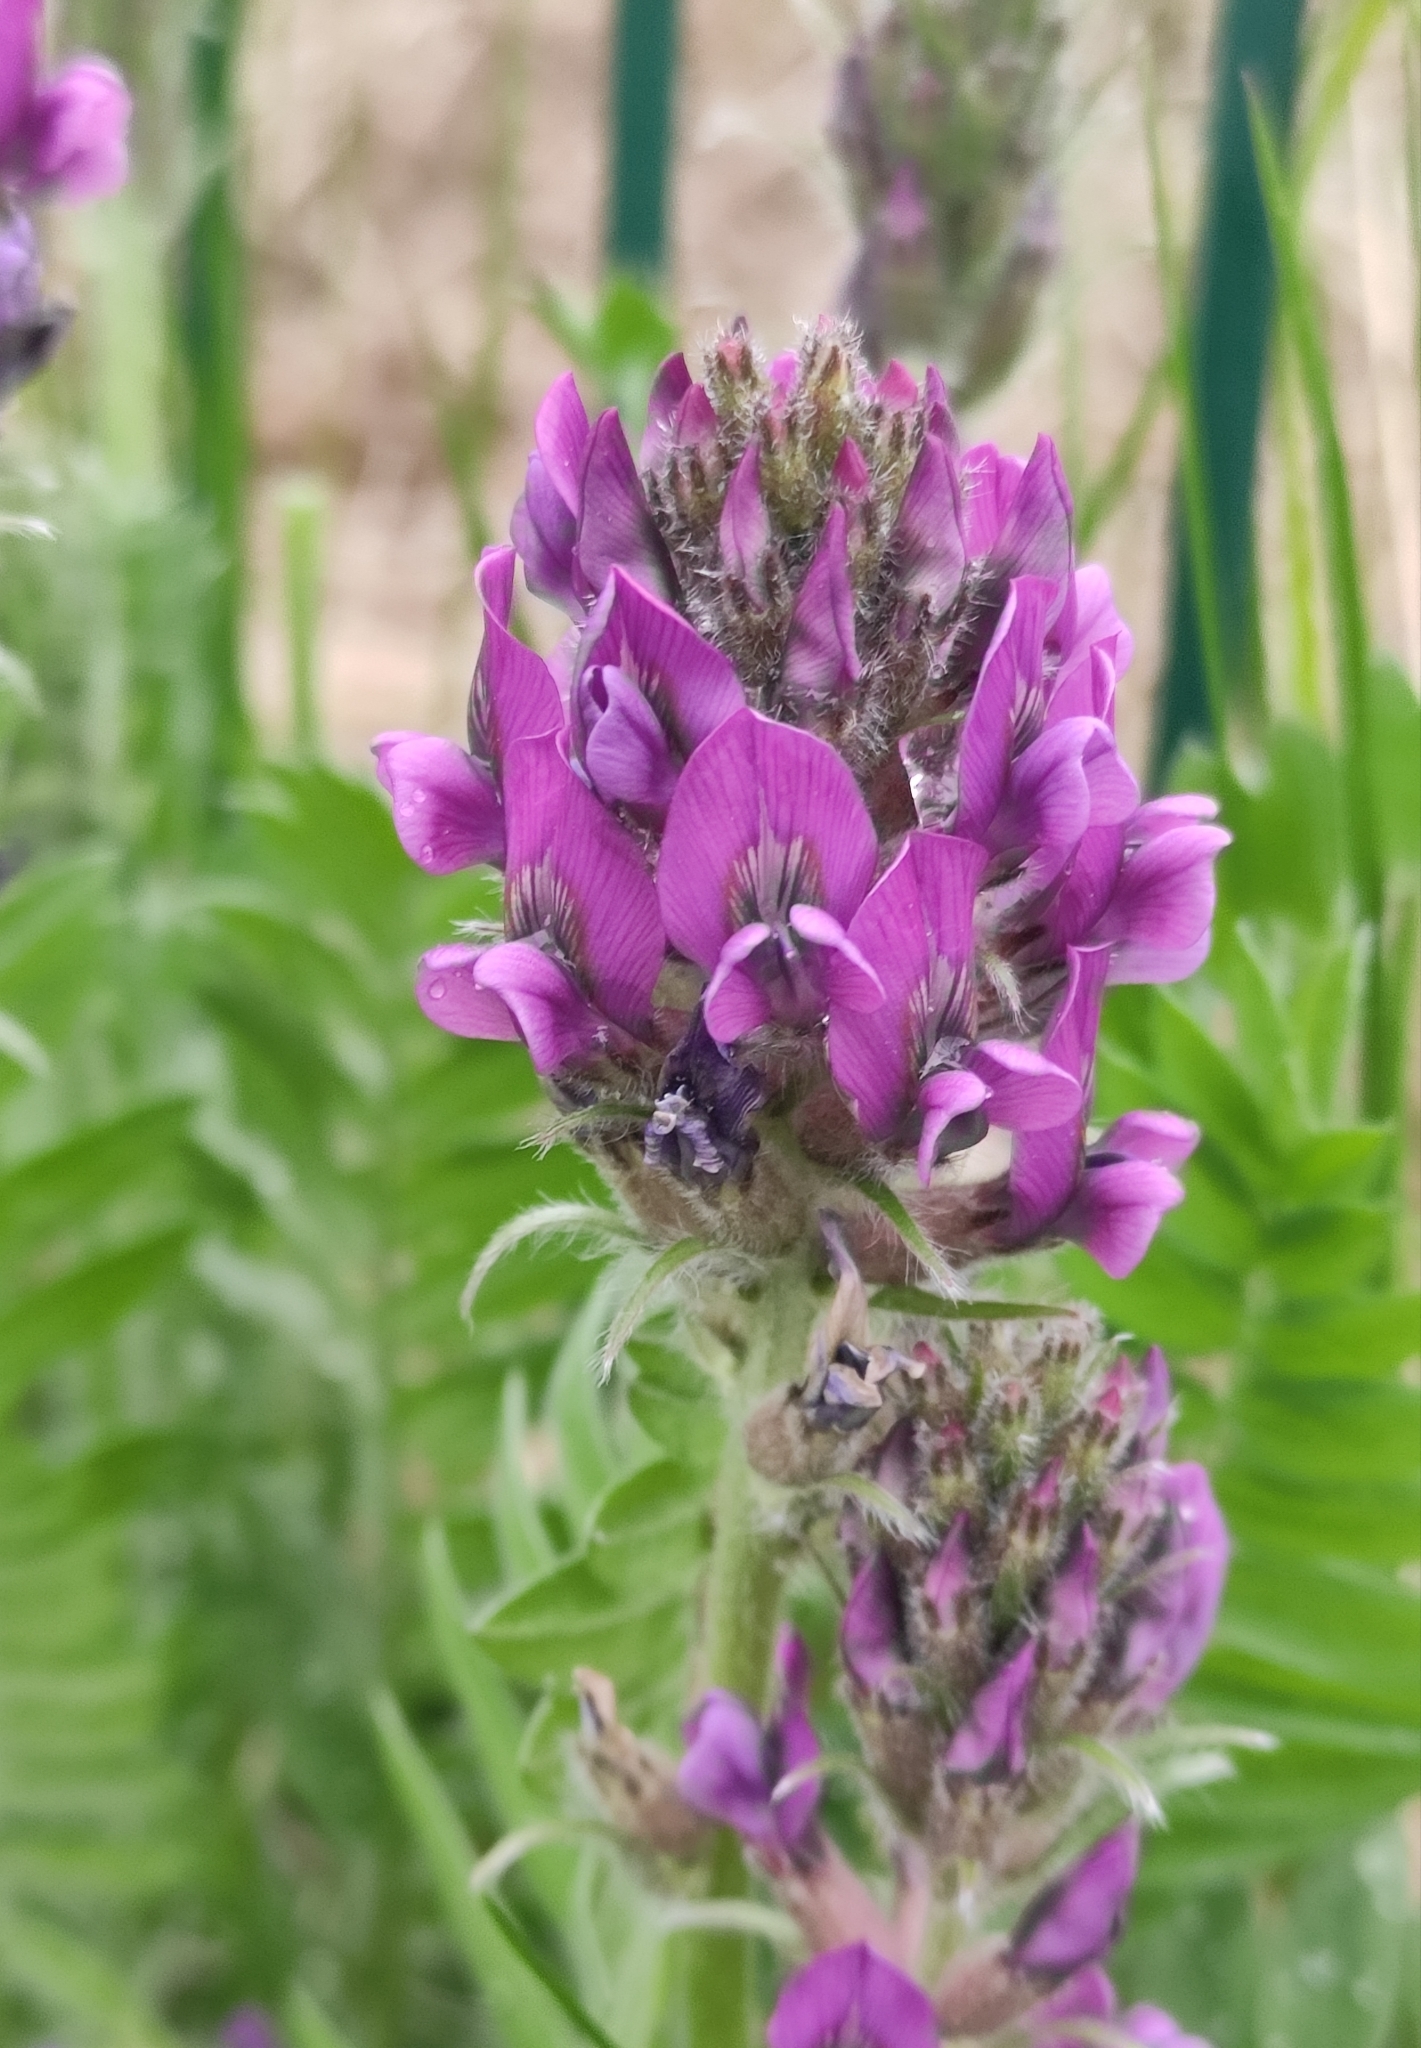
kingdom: Plantae
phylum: Tracheophyta
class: Magnoliopsida
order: Fabales
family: Fabaceae
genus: Oxytropis
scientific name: Oxytropis strobilacea
